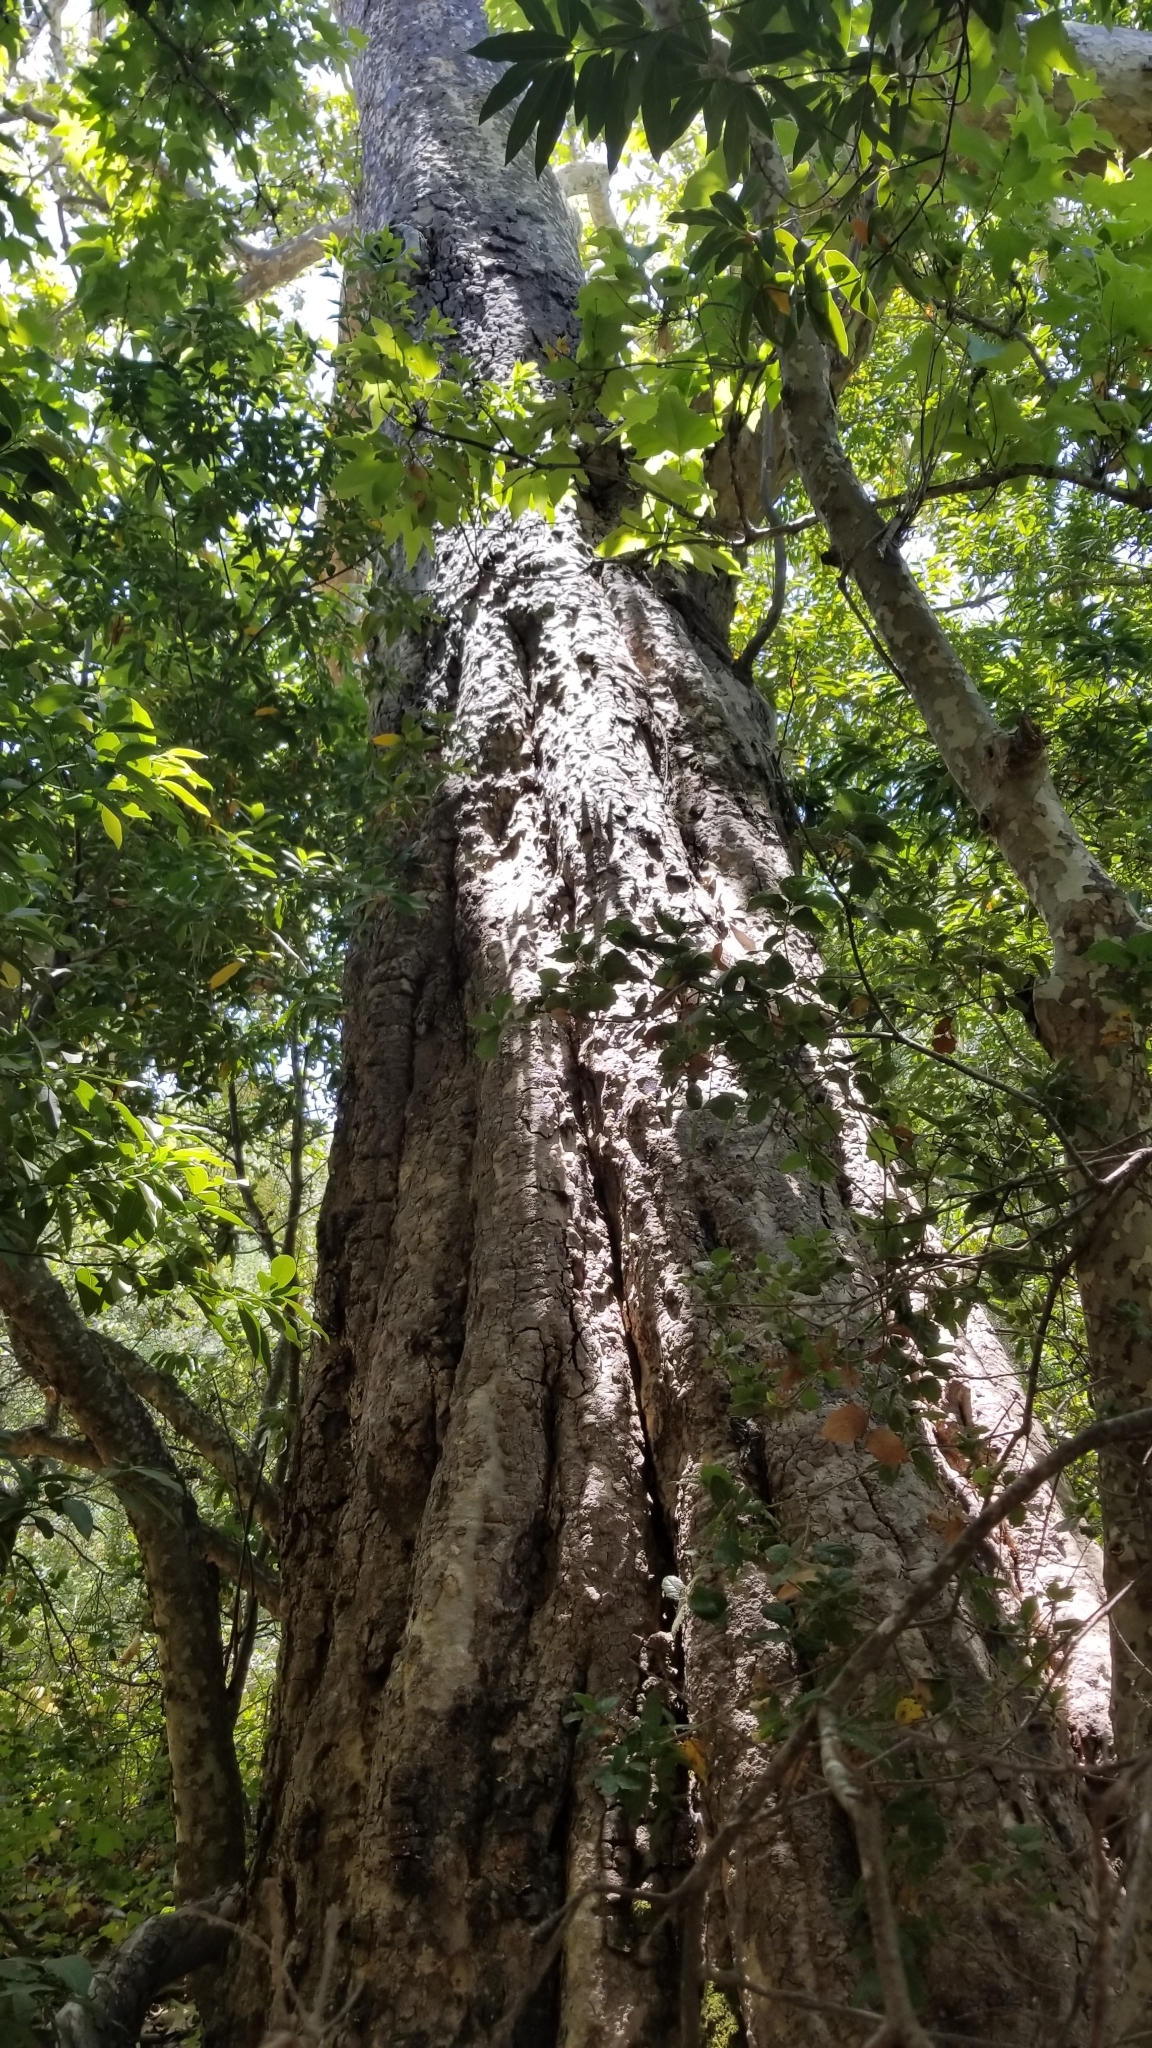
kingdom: Plantae
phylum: Tracheophyta
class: Magnoliopsida
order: Proteales
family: Platanaceae
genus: Platanus
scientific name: Platanus racemosa
